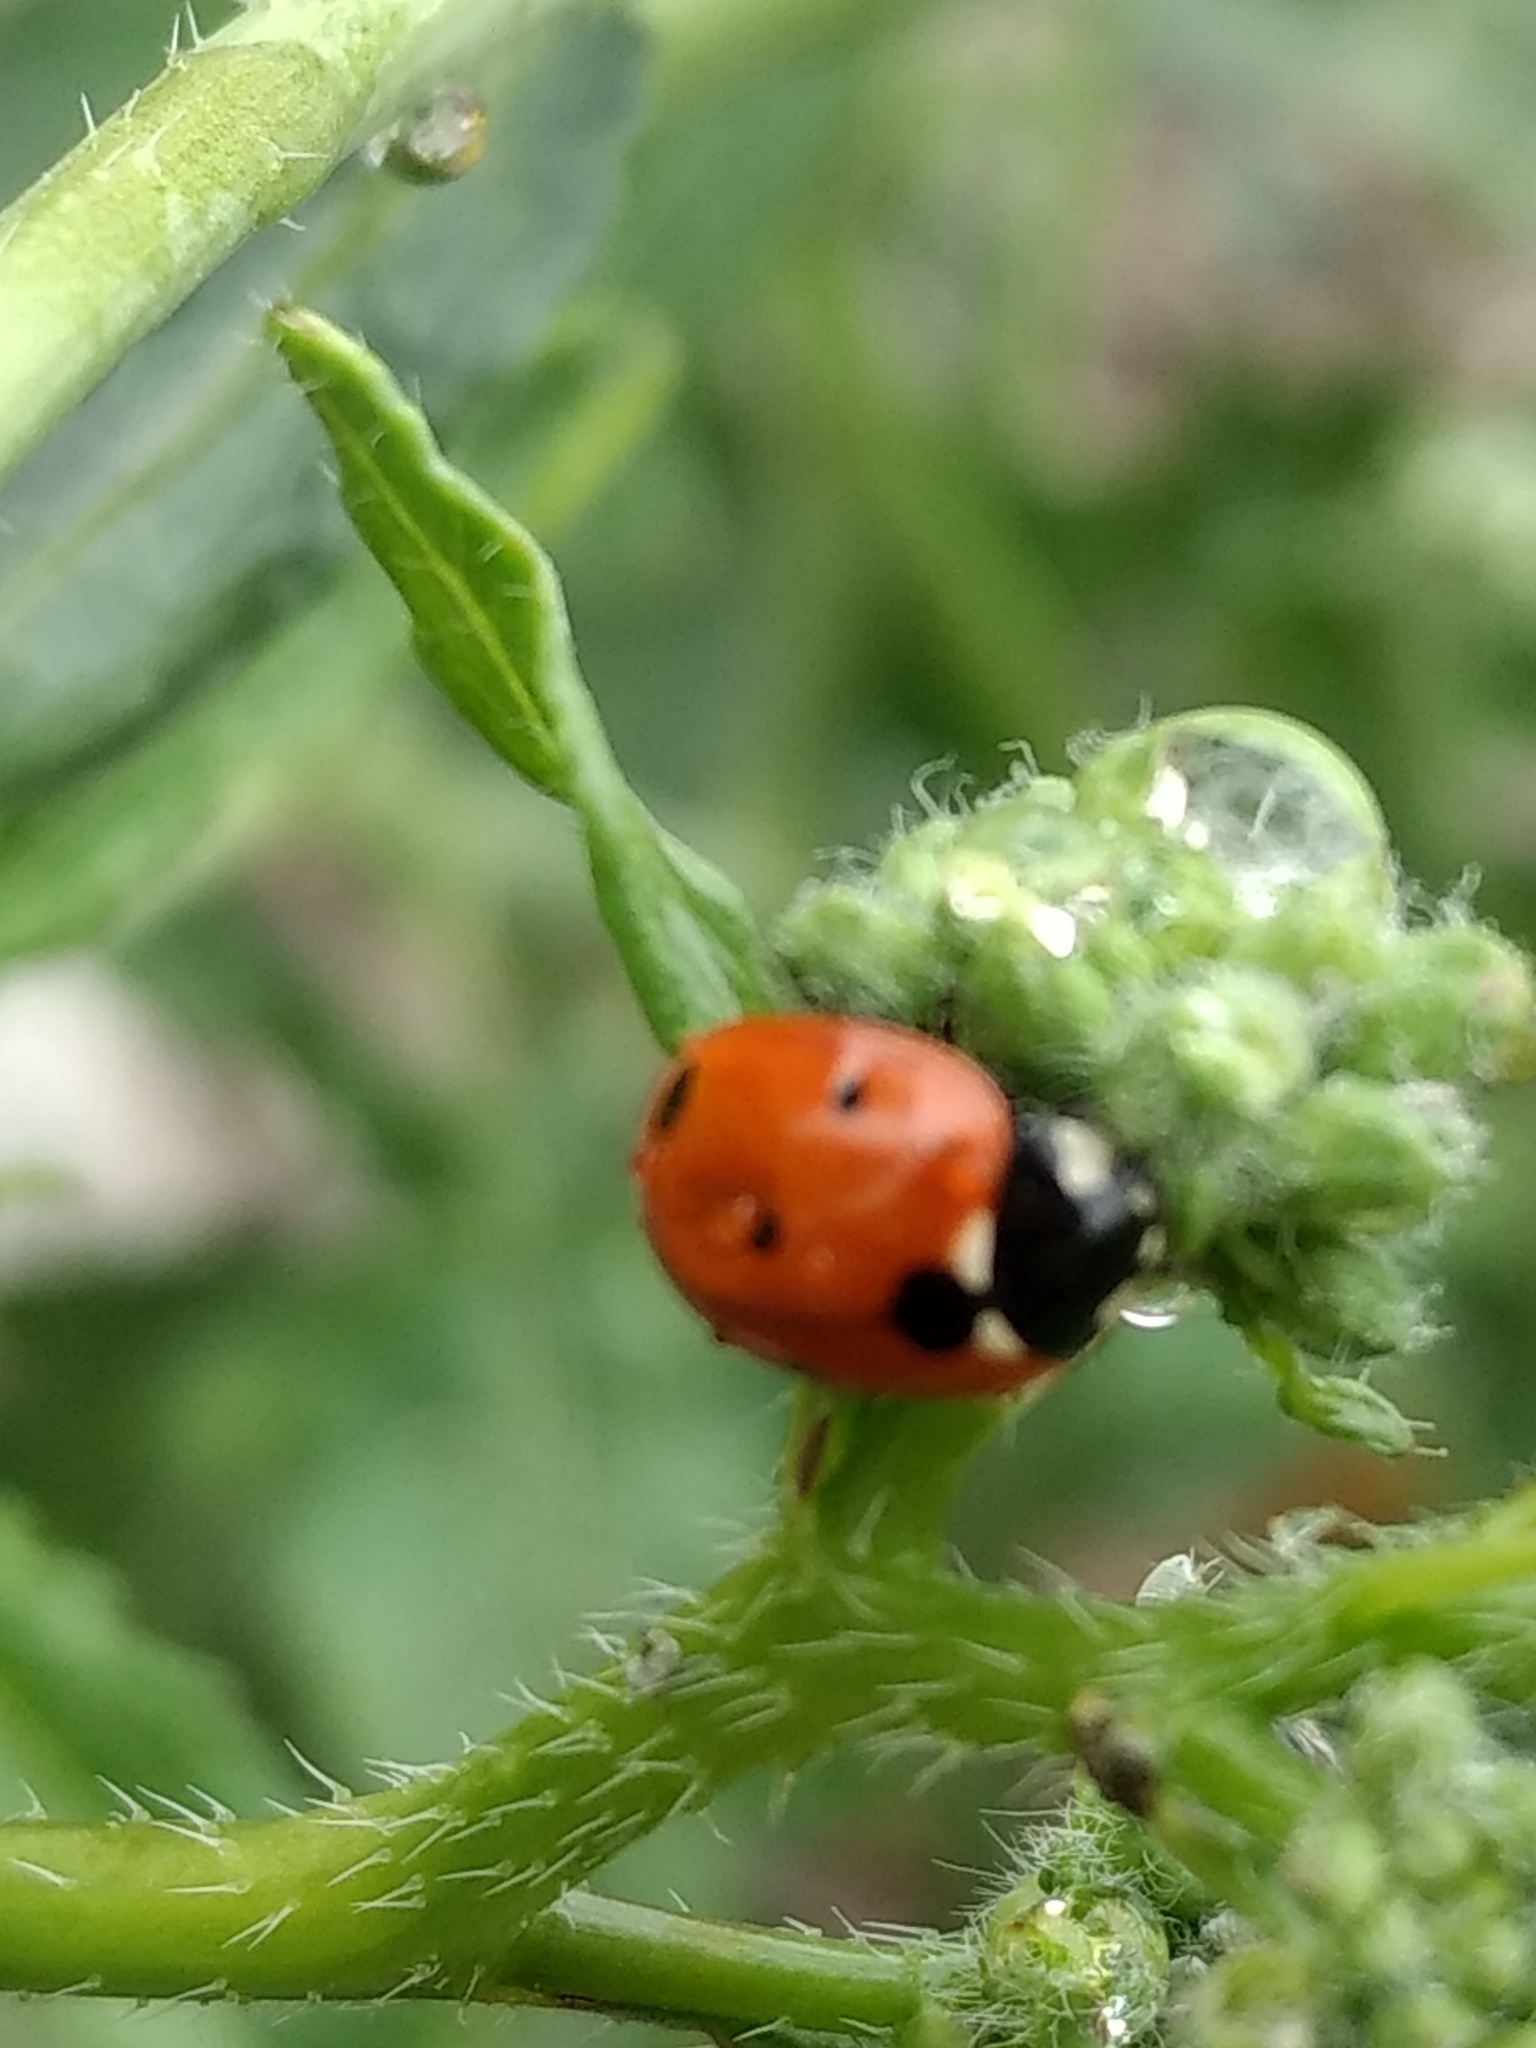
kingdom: Animalia
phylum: Arthropoda
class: Insecta
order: Coleoptera
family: Coccinellidae
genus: Coccinella
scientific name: Coccinella septempunctata
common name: Sevenspotted lady beetle
